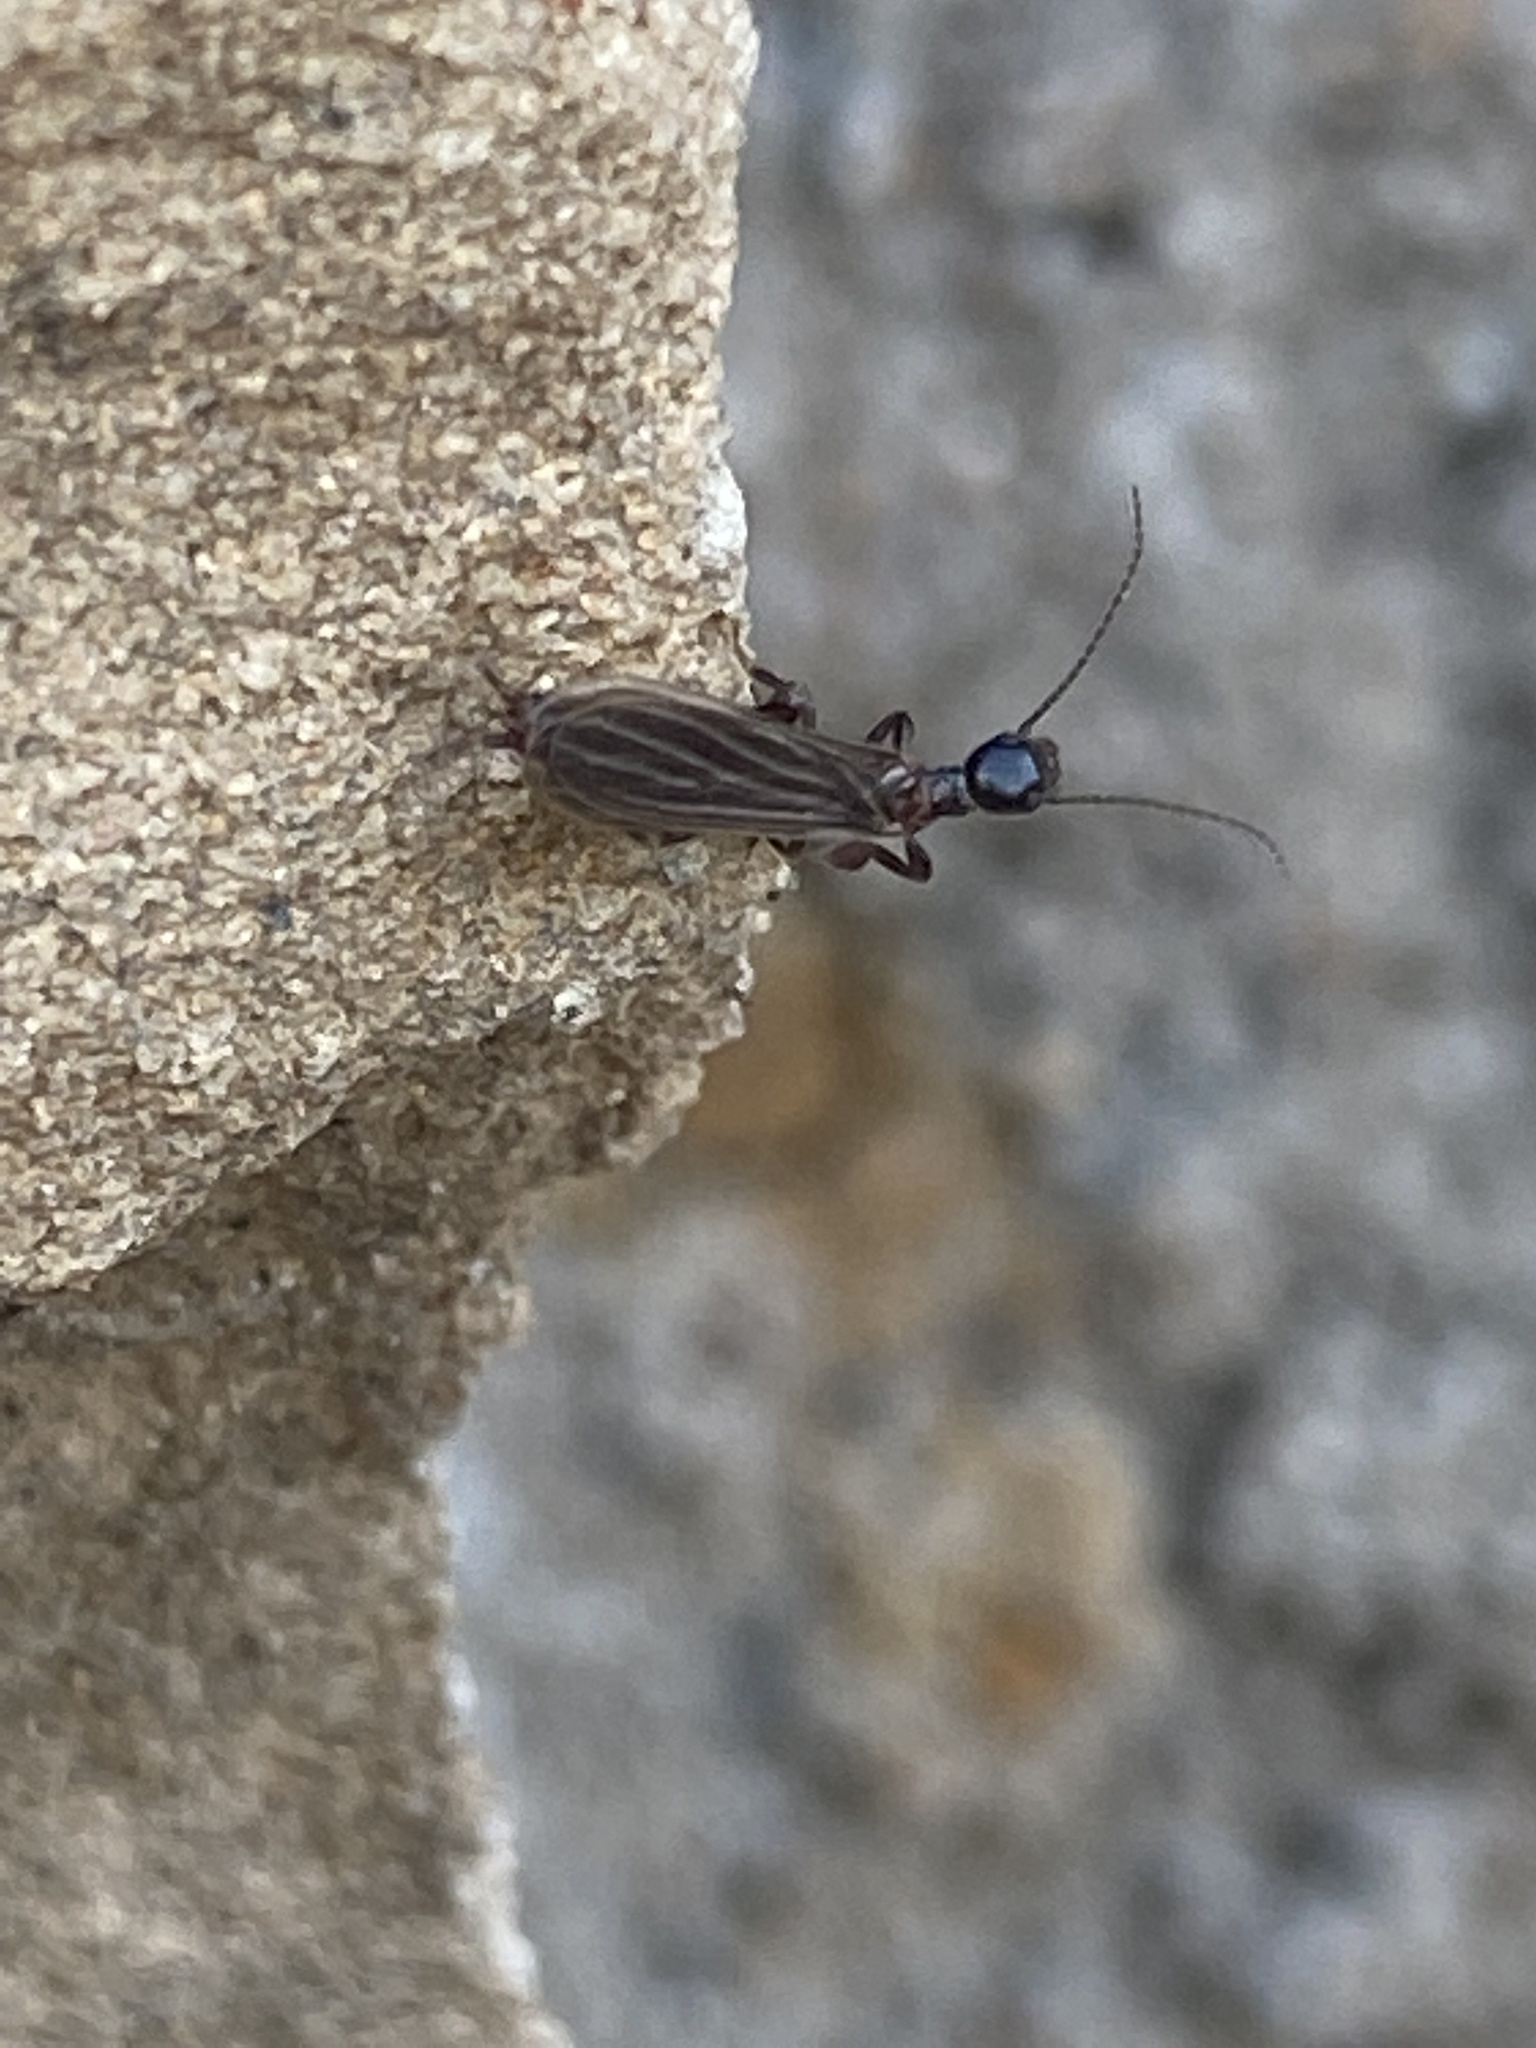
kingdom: Animalia
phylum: Arthropoda
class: Insecta
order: Embioptera
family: Oligotomidae
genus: Oligotoma
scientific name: Oligotoma nigra
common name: Black webspinner
